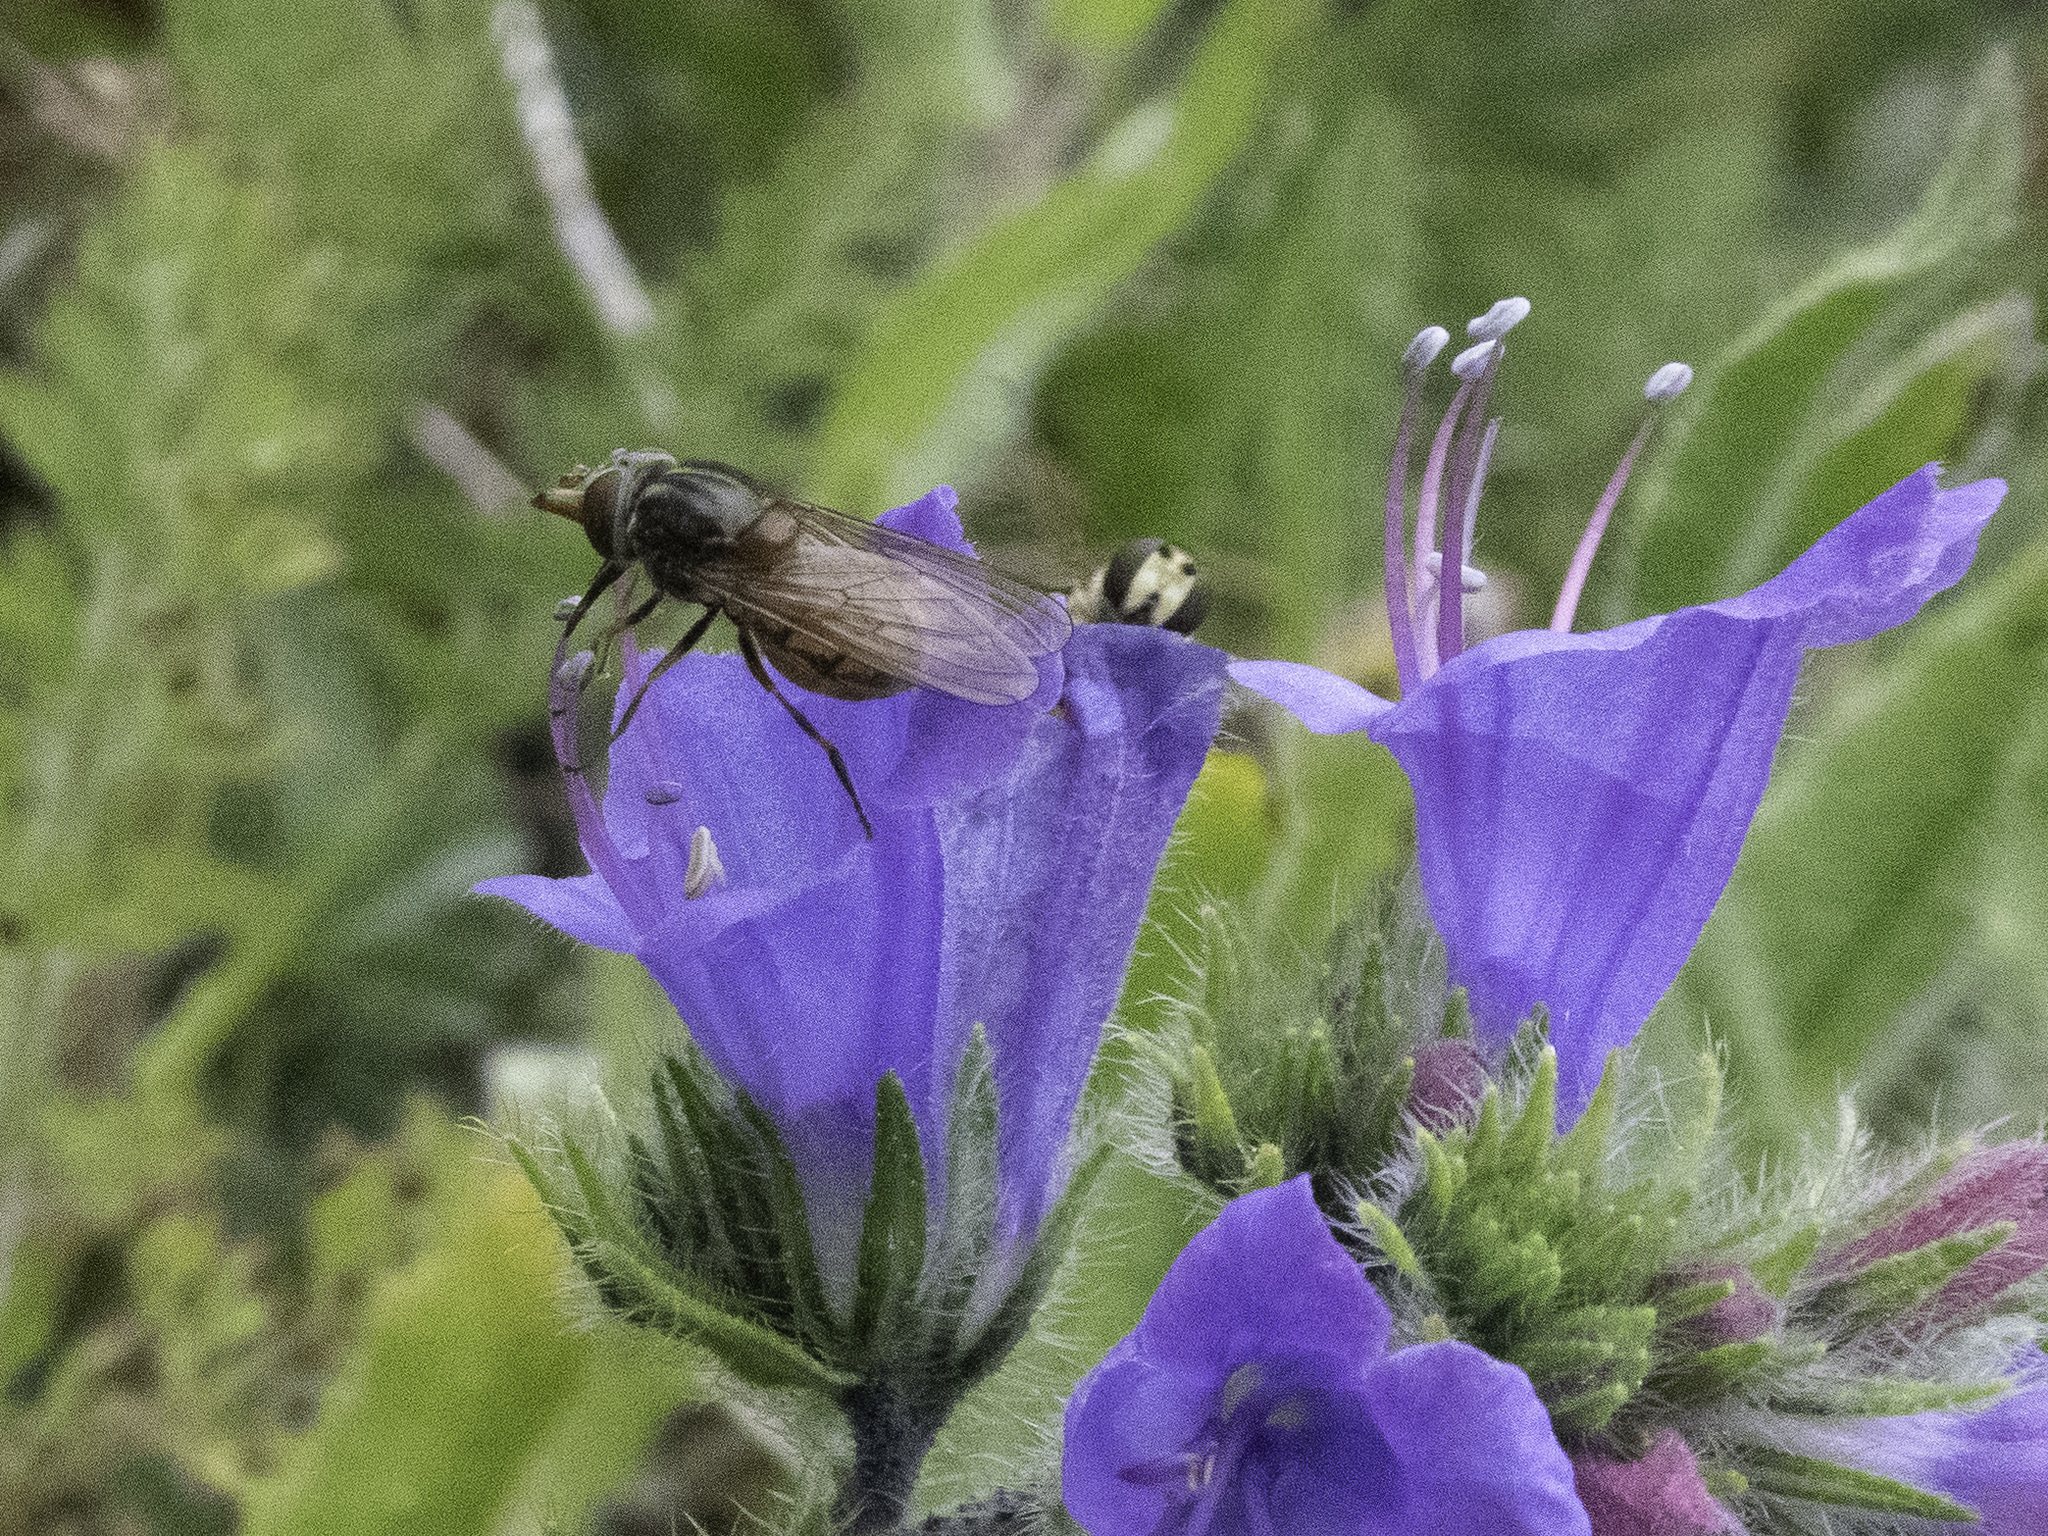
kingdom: Animalia
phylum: Arthropoda
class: Insecta
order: Diptera
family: Syrphidae
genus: Rhingia
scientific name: Rhingia campestris
